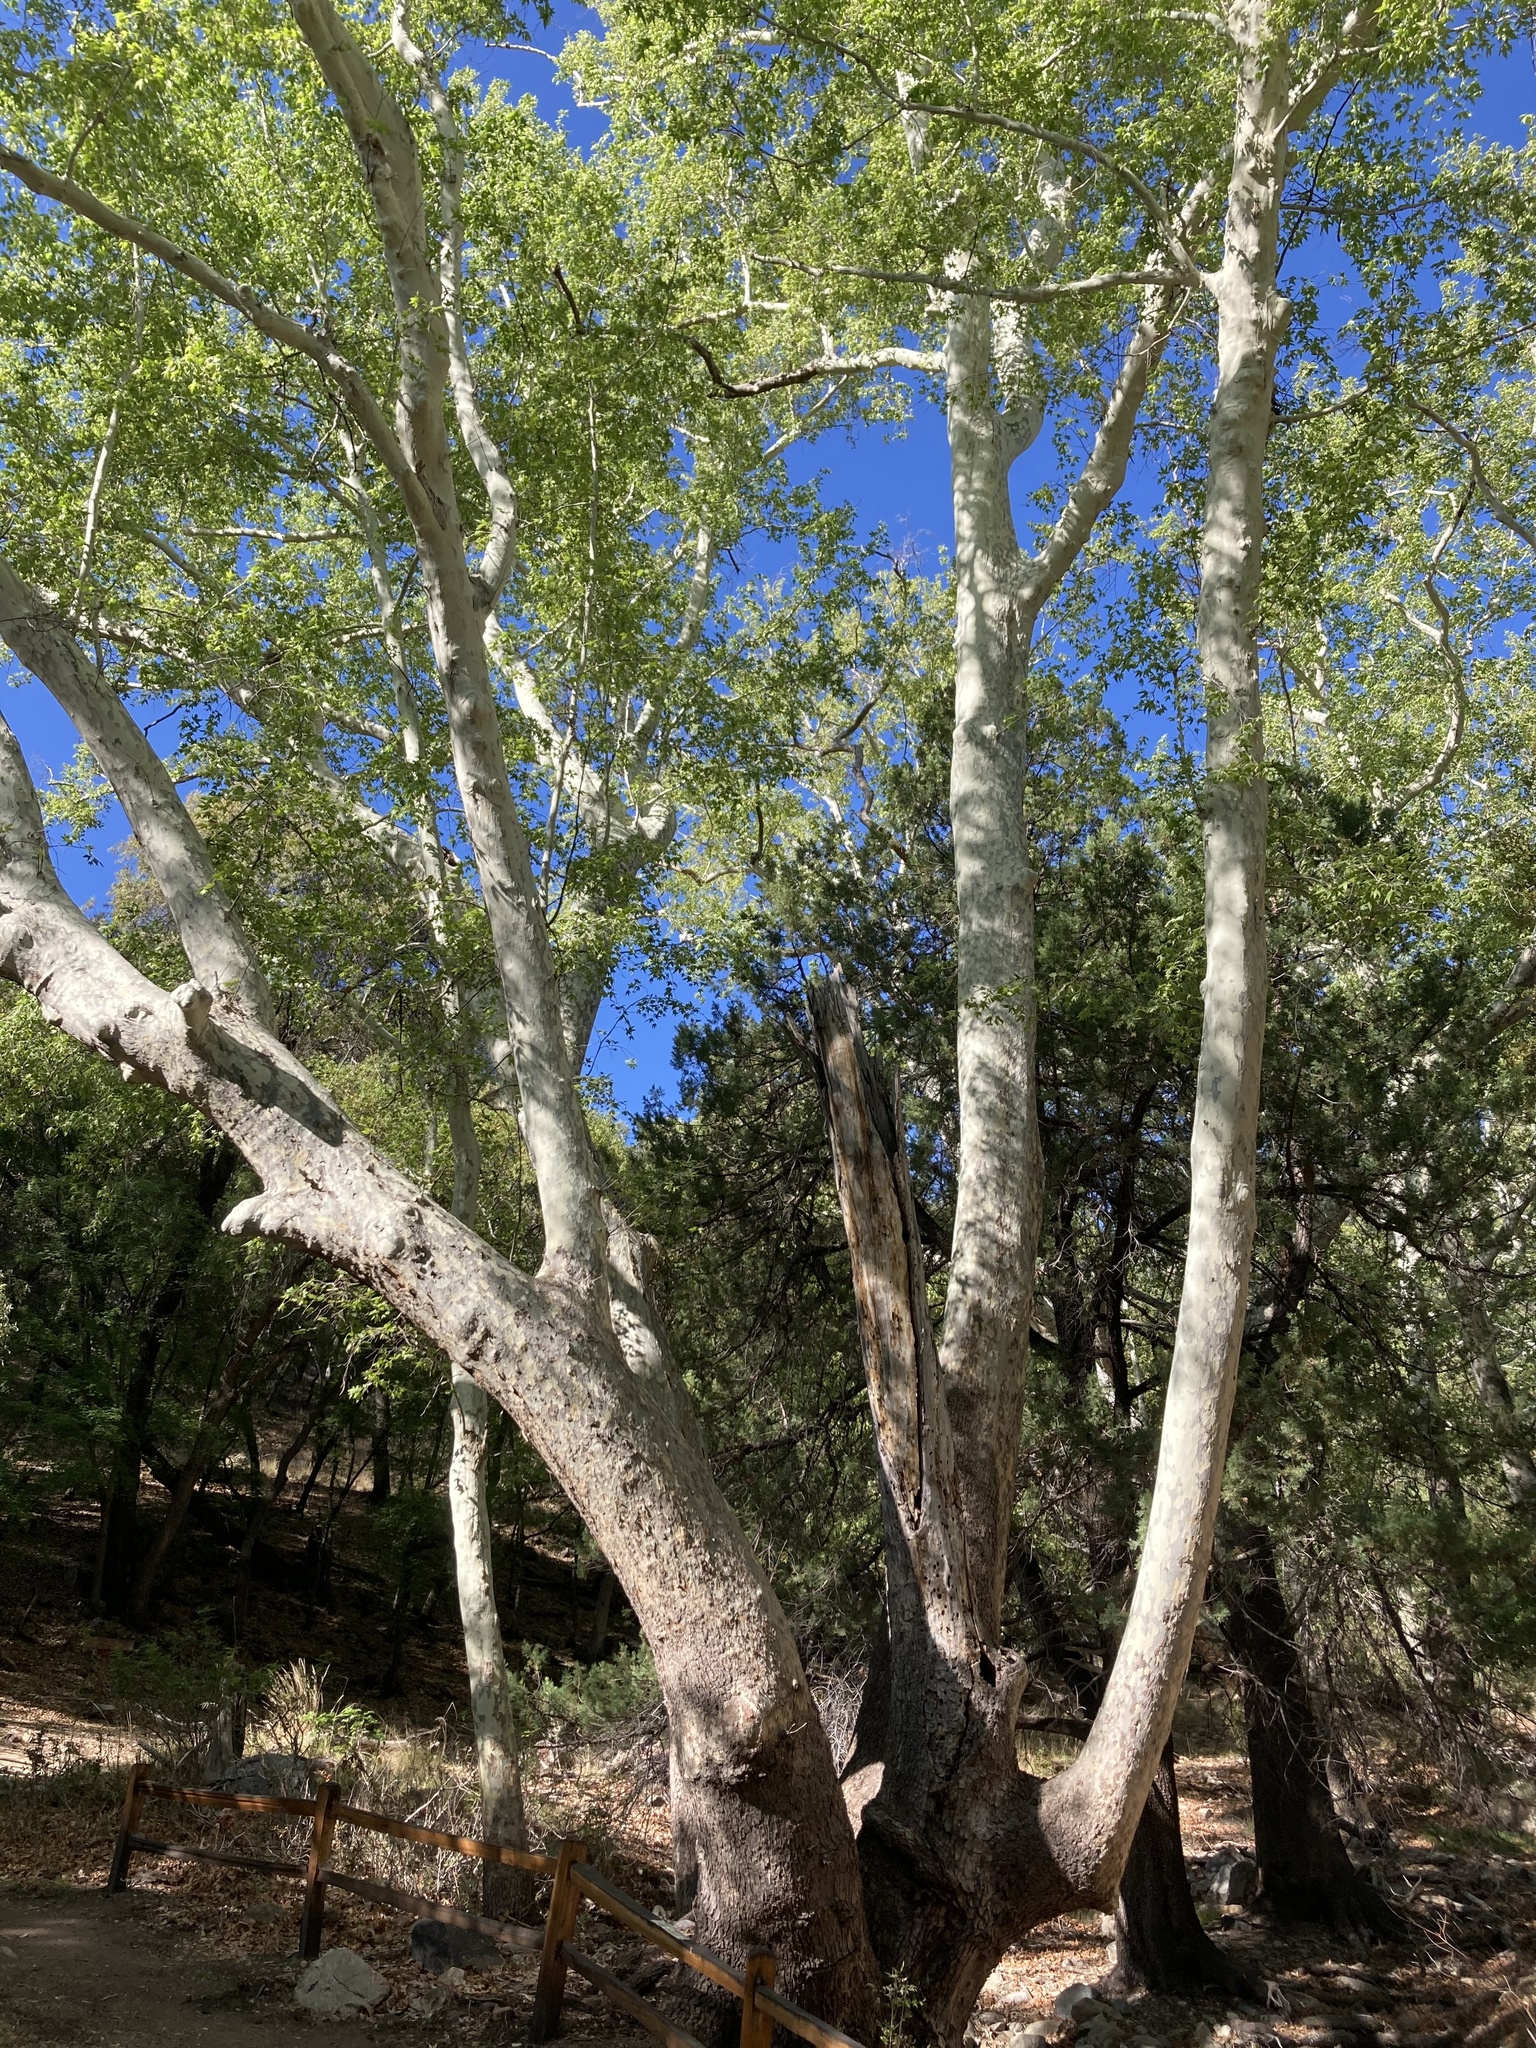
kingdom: Plantae
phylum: Tracheophyta
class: Magnoliopsida
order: Proteales
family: Platanaceae
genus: Platanus
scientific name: Platanus wrightii
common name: Arizona sycamore
